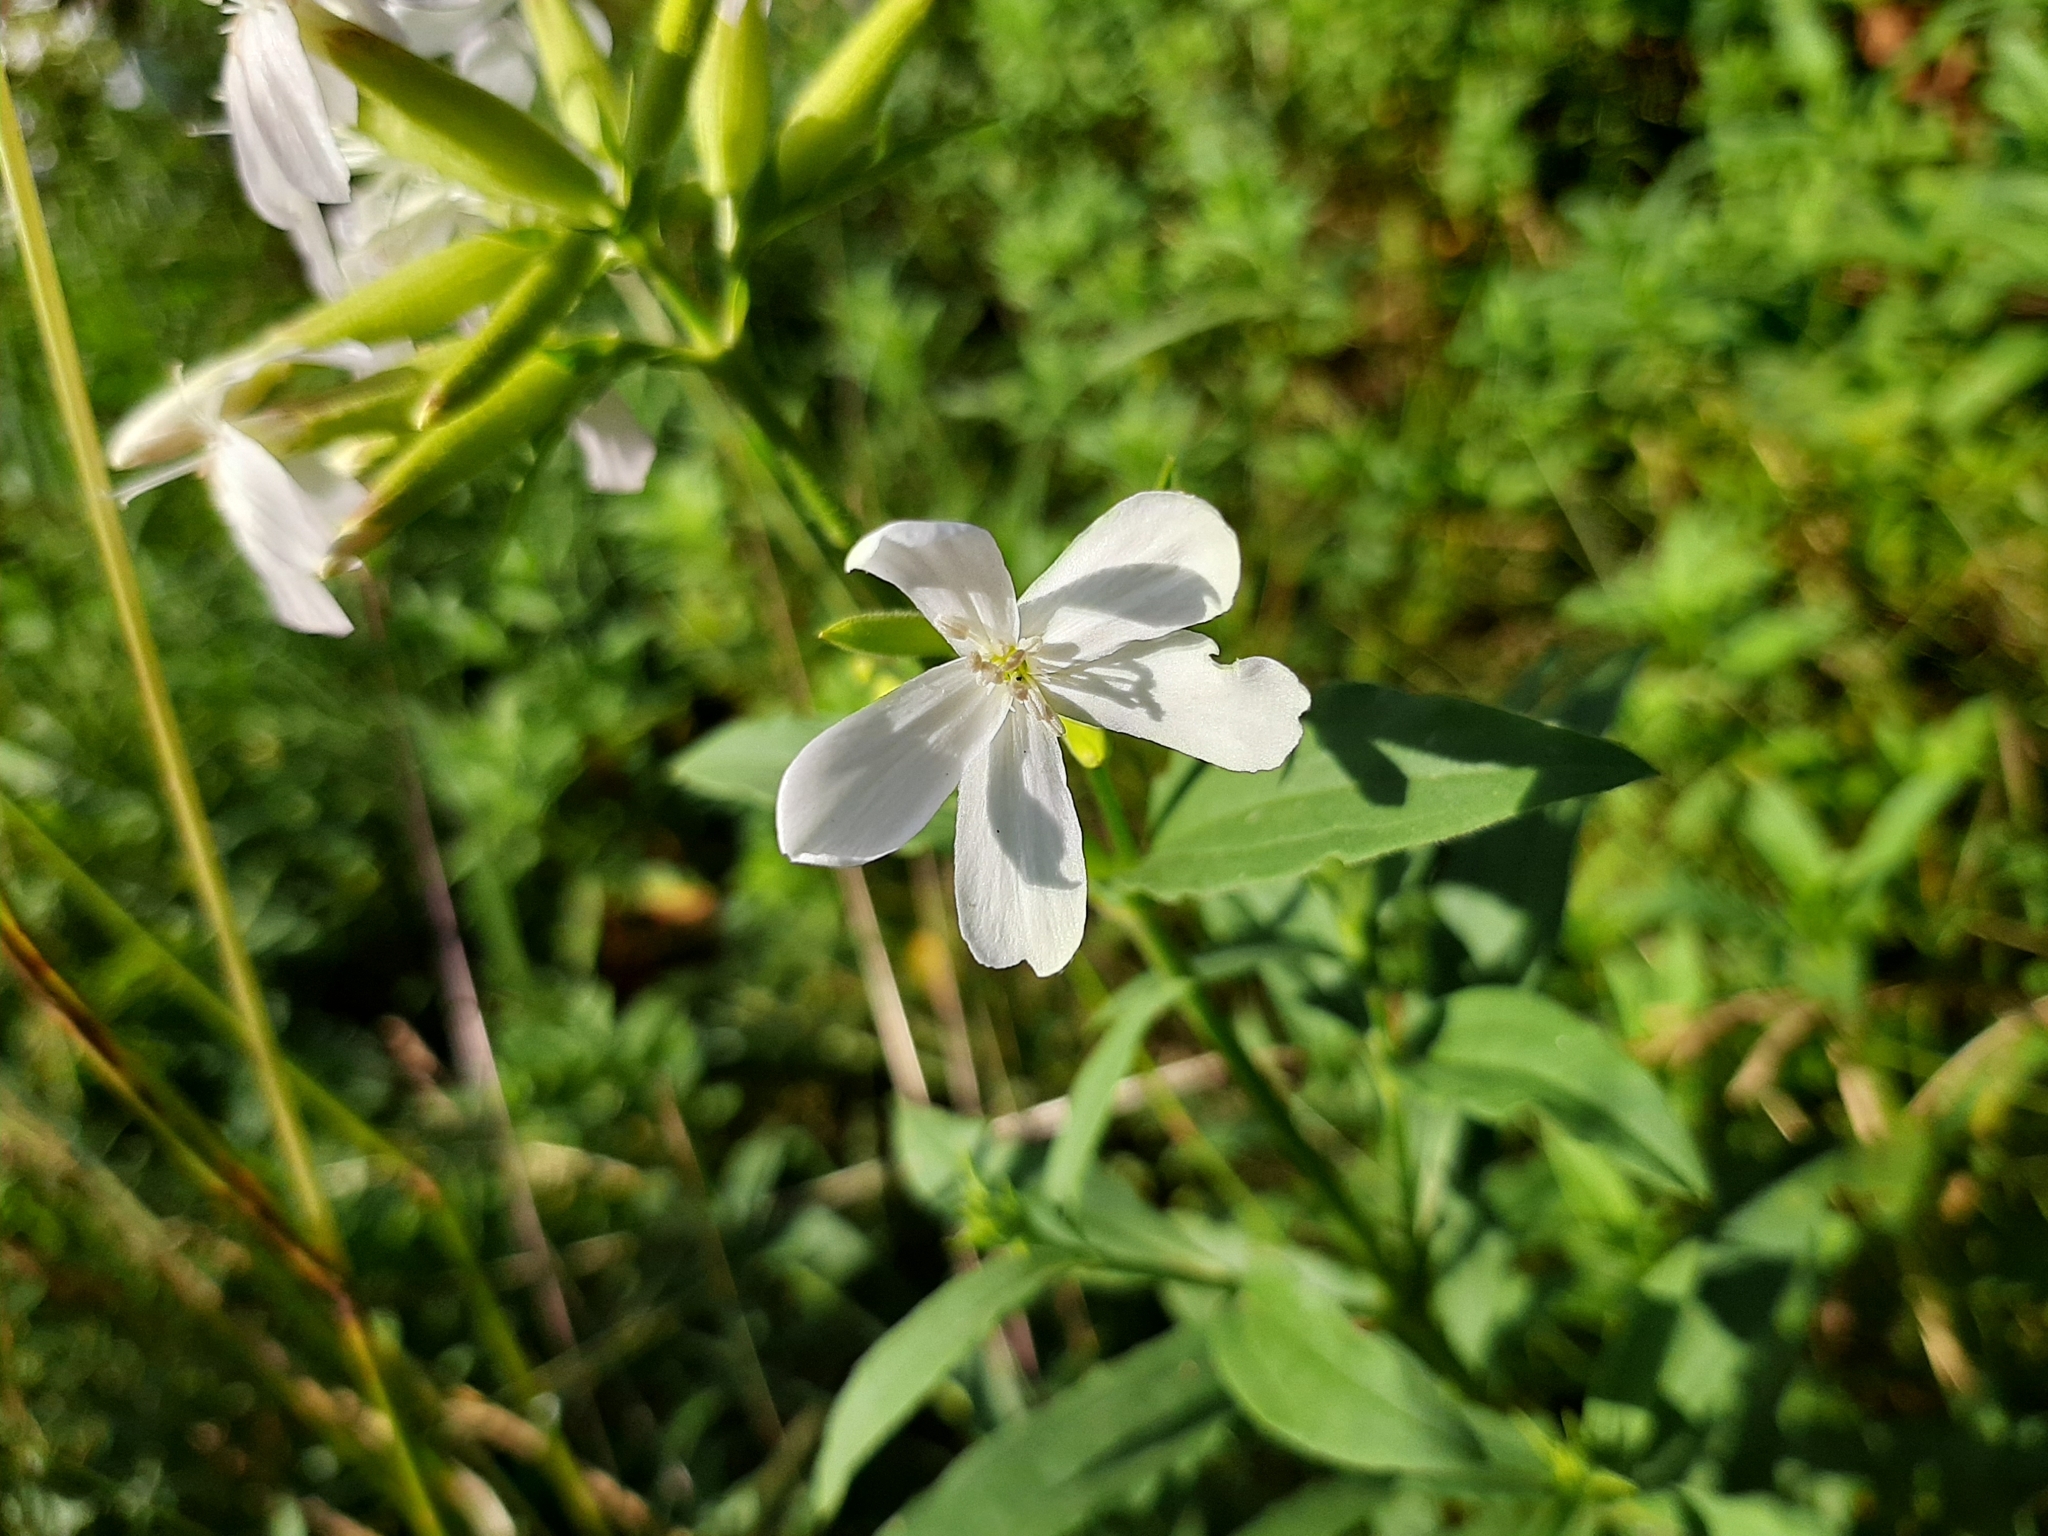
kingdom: Plantae
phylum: Tracheophyta
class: Magnoliopsida
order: Caryophyllales
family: Caryophyllaceae
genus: Saponaria
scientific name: Saponaria officinalis
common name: Soapwort
